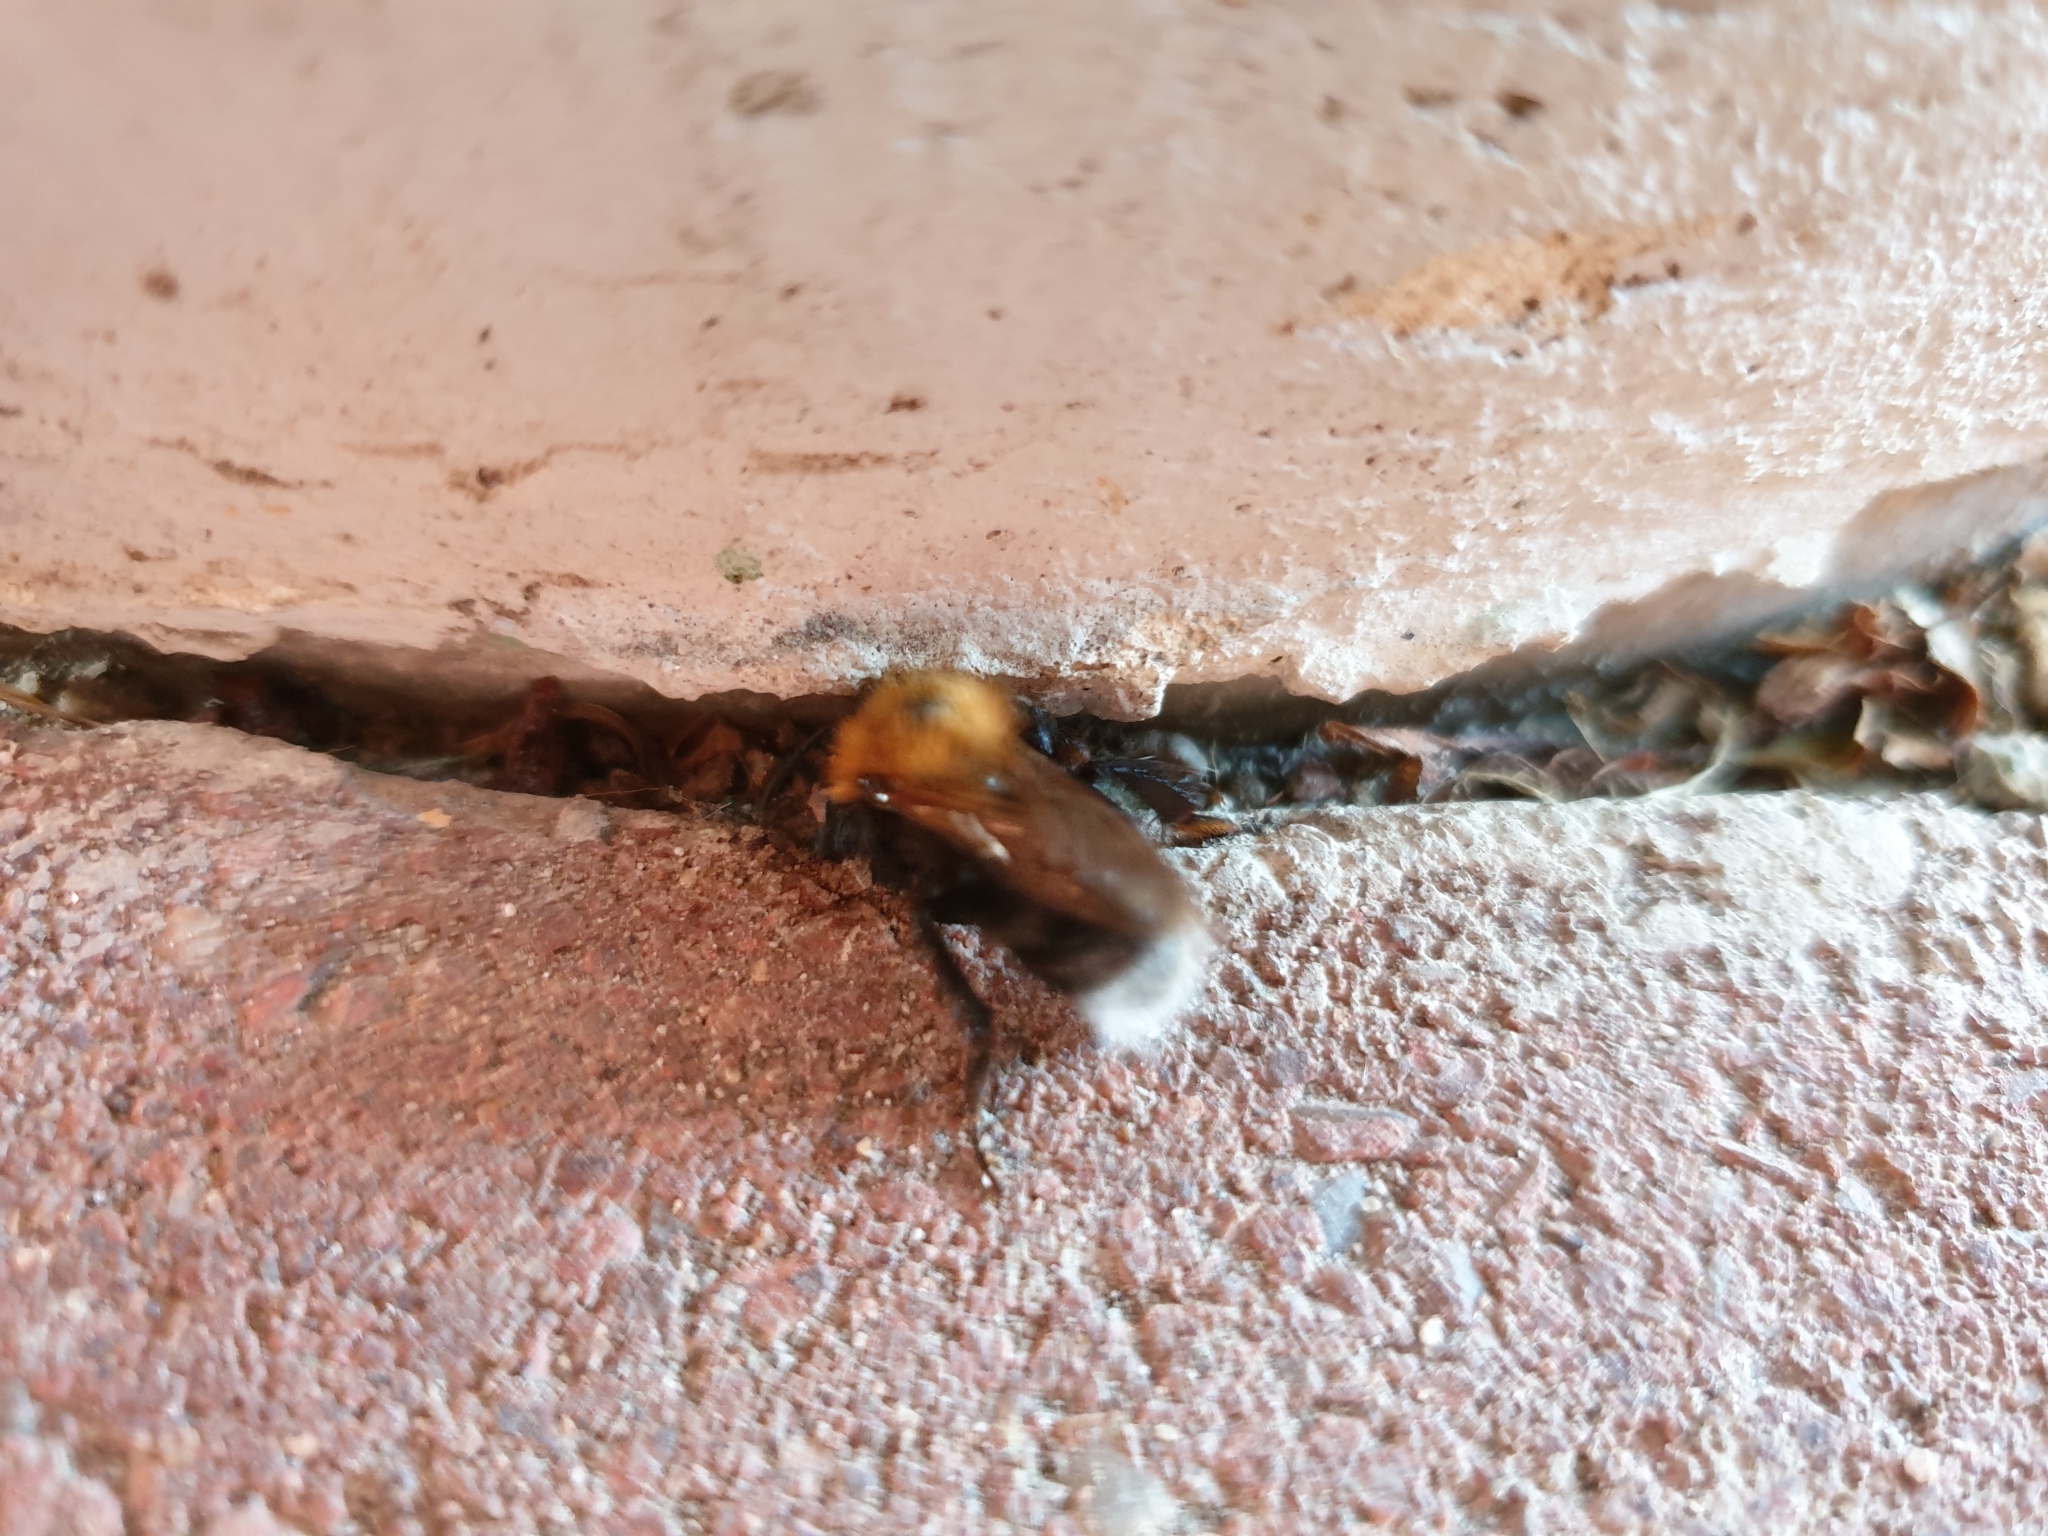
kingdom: Animalia
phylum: Arthropoda
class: Insecta
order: Hymenoptera
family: Apidae
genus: Bombus
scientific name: Bombus hypnorum
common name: New garden bumblebee
